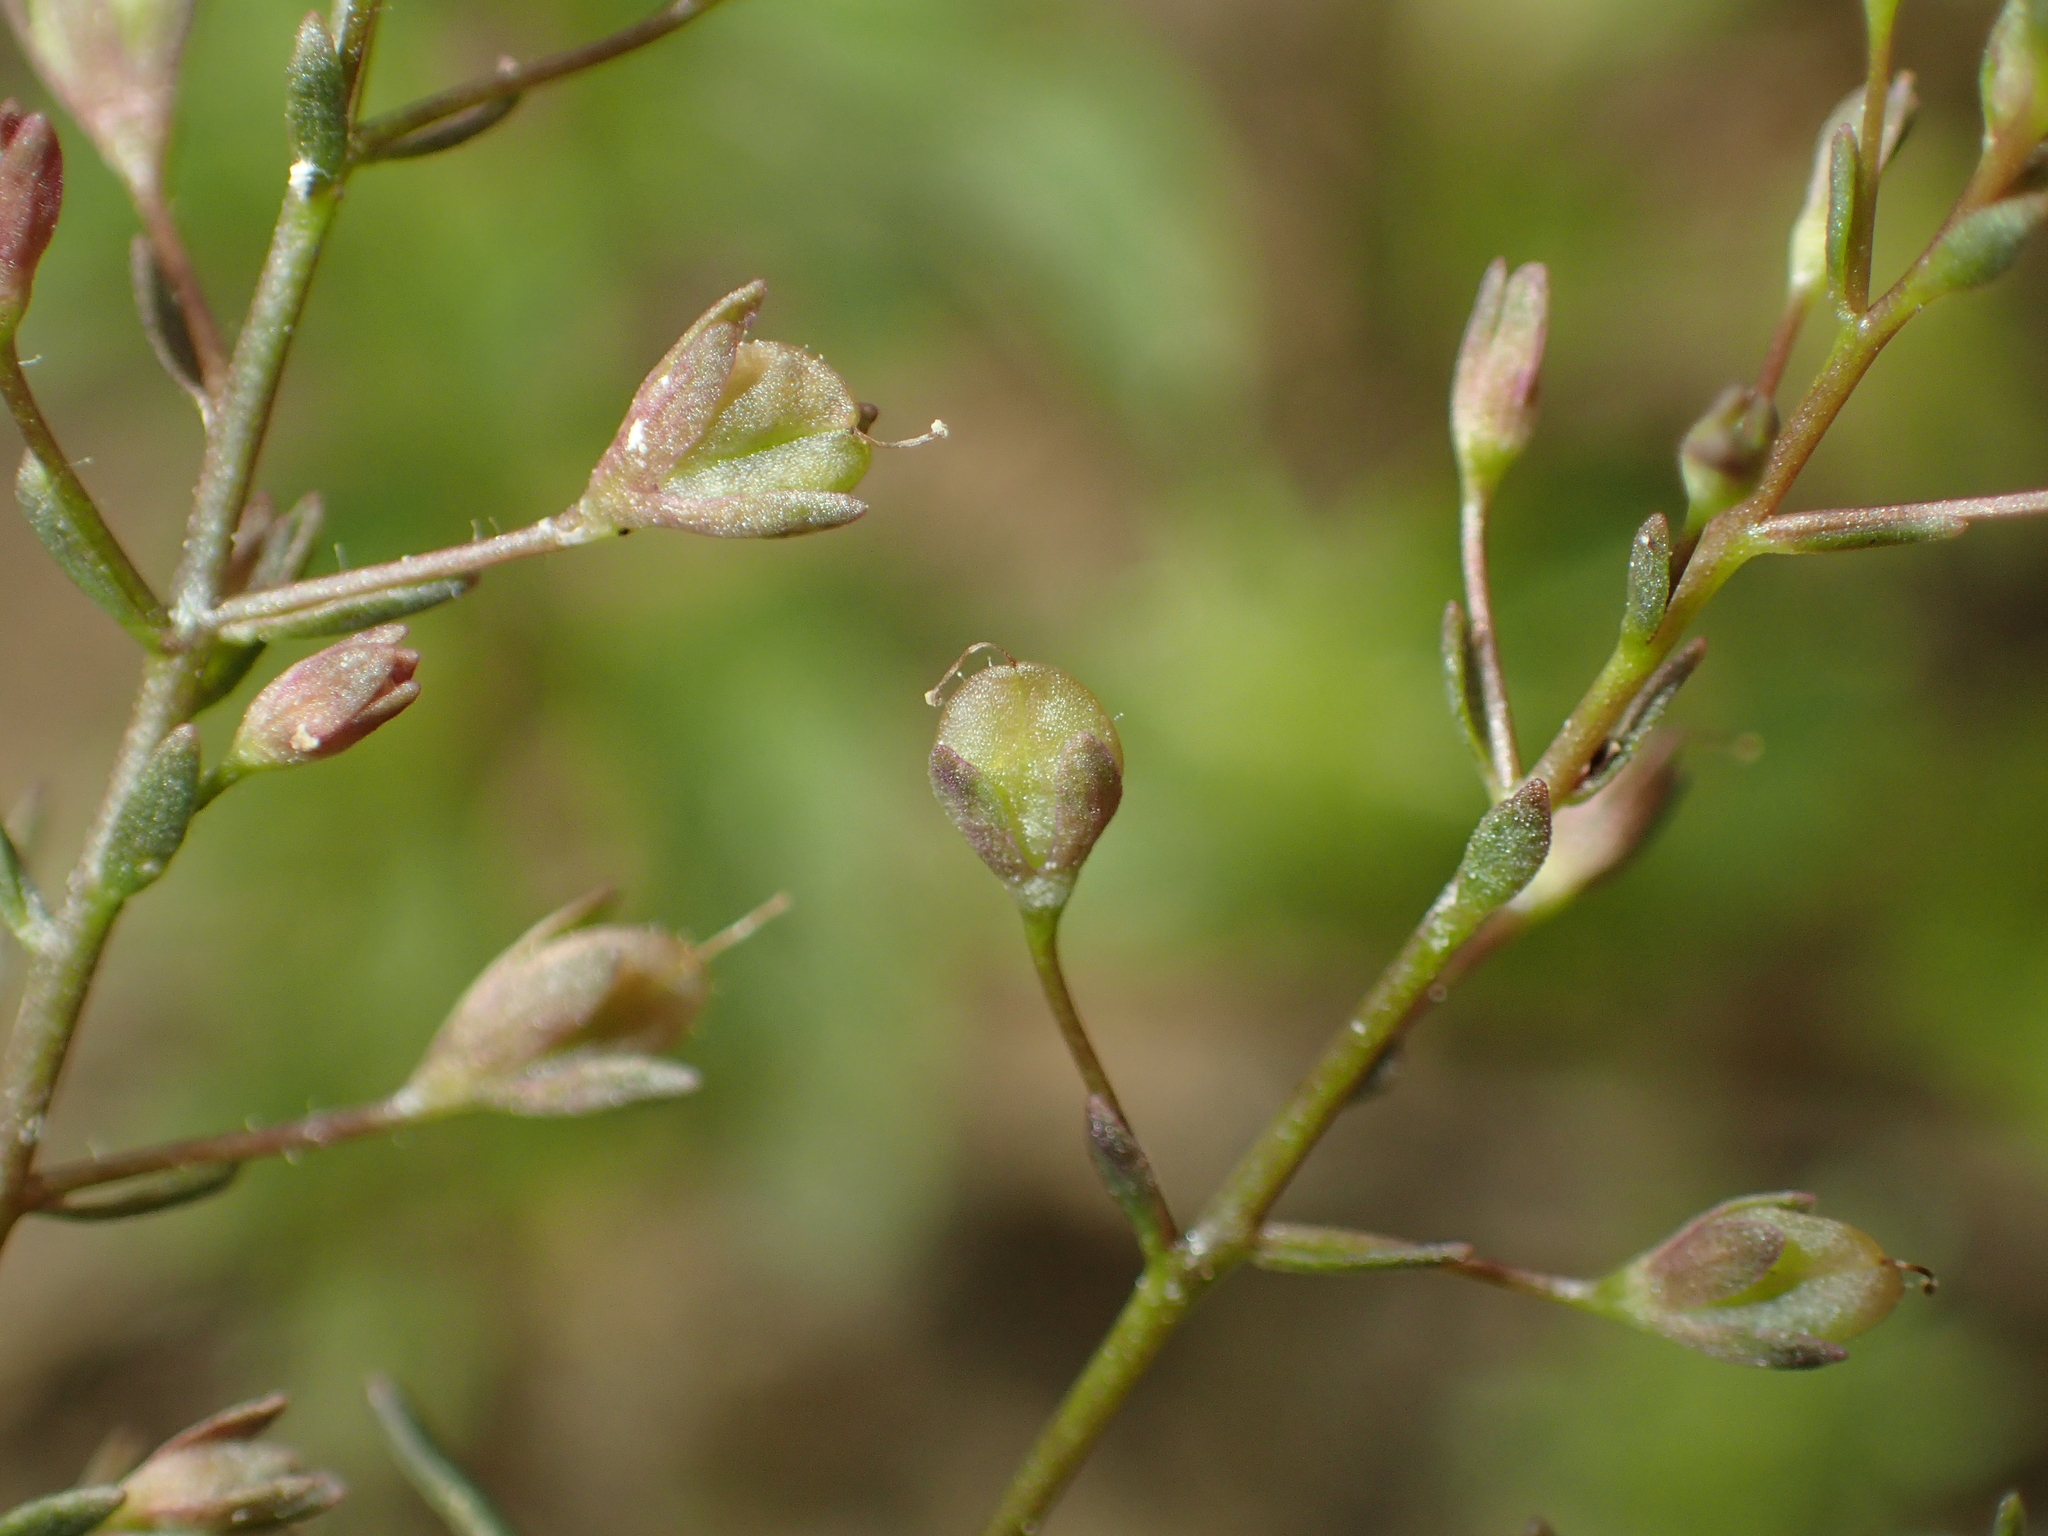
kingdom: Plantae
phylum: Tracheophyta
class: Magnoliopsida
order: Lamiales
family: Plantaginaceae
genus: Veronica
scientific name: Veronica anagalloides
